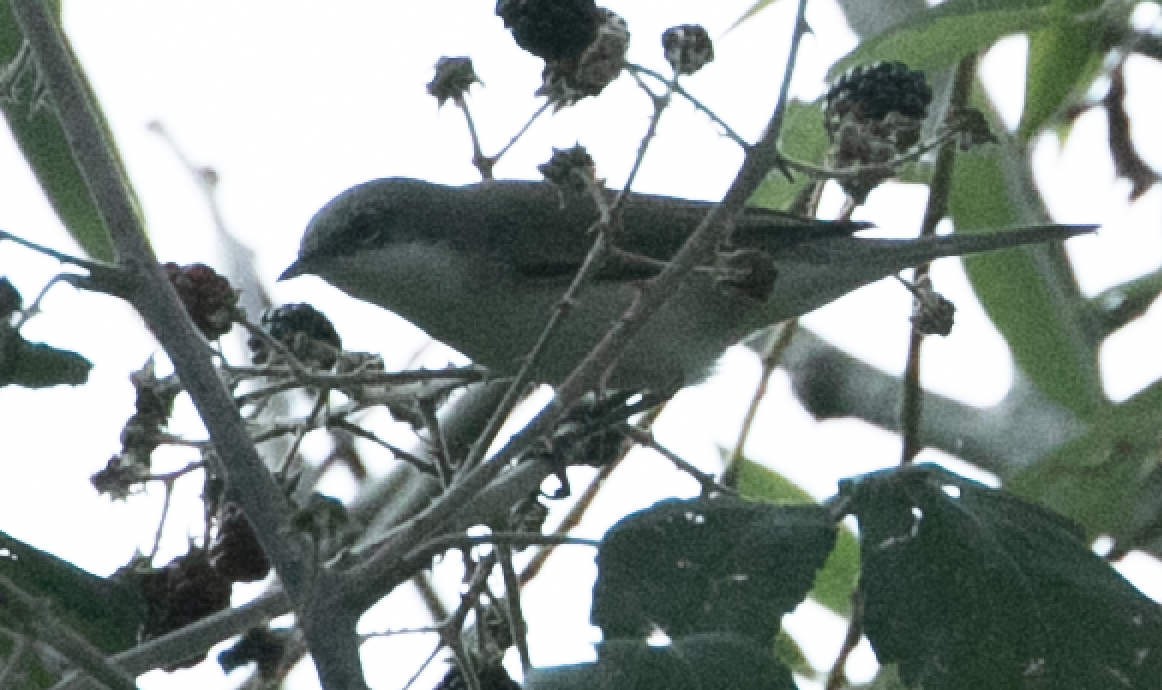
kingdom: Animalia
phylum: Chordata
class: Aves
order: Passeriformes
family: Sylviidae
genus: Sylvia
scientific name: Sylvia curruca
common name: Lesser whitethroat
